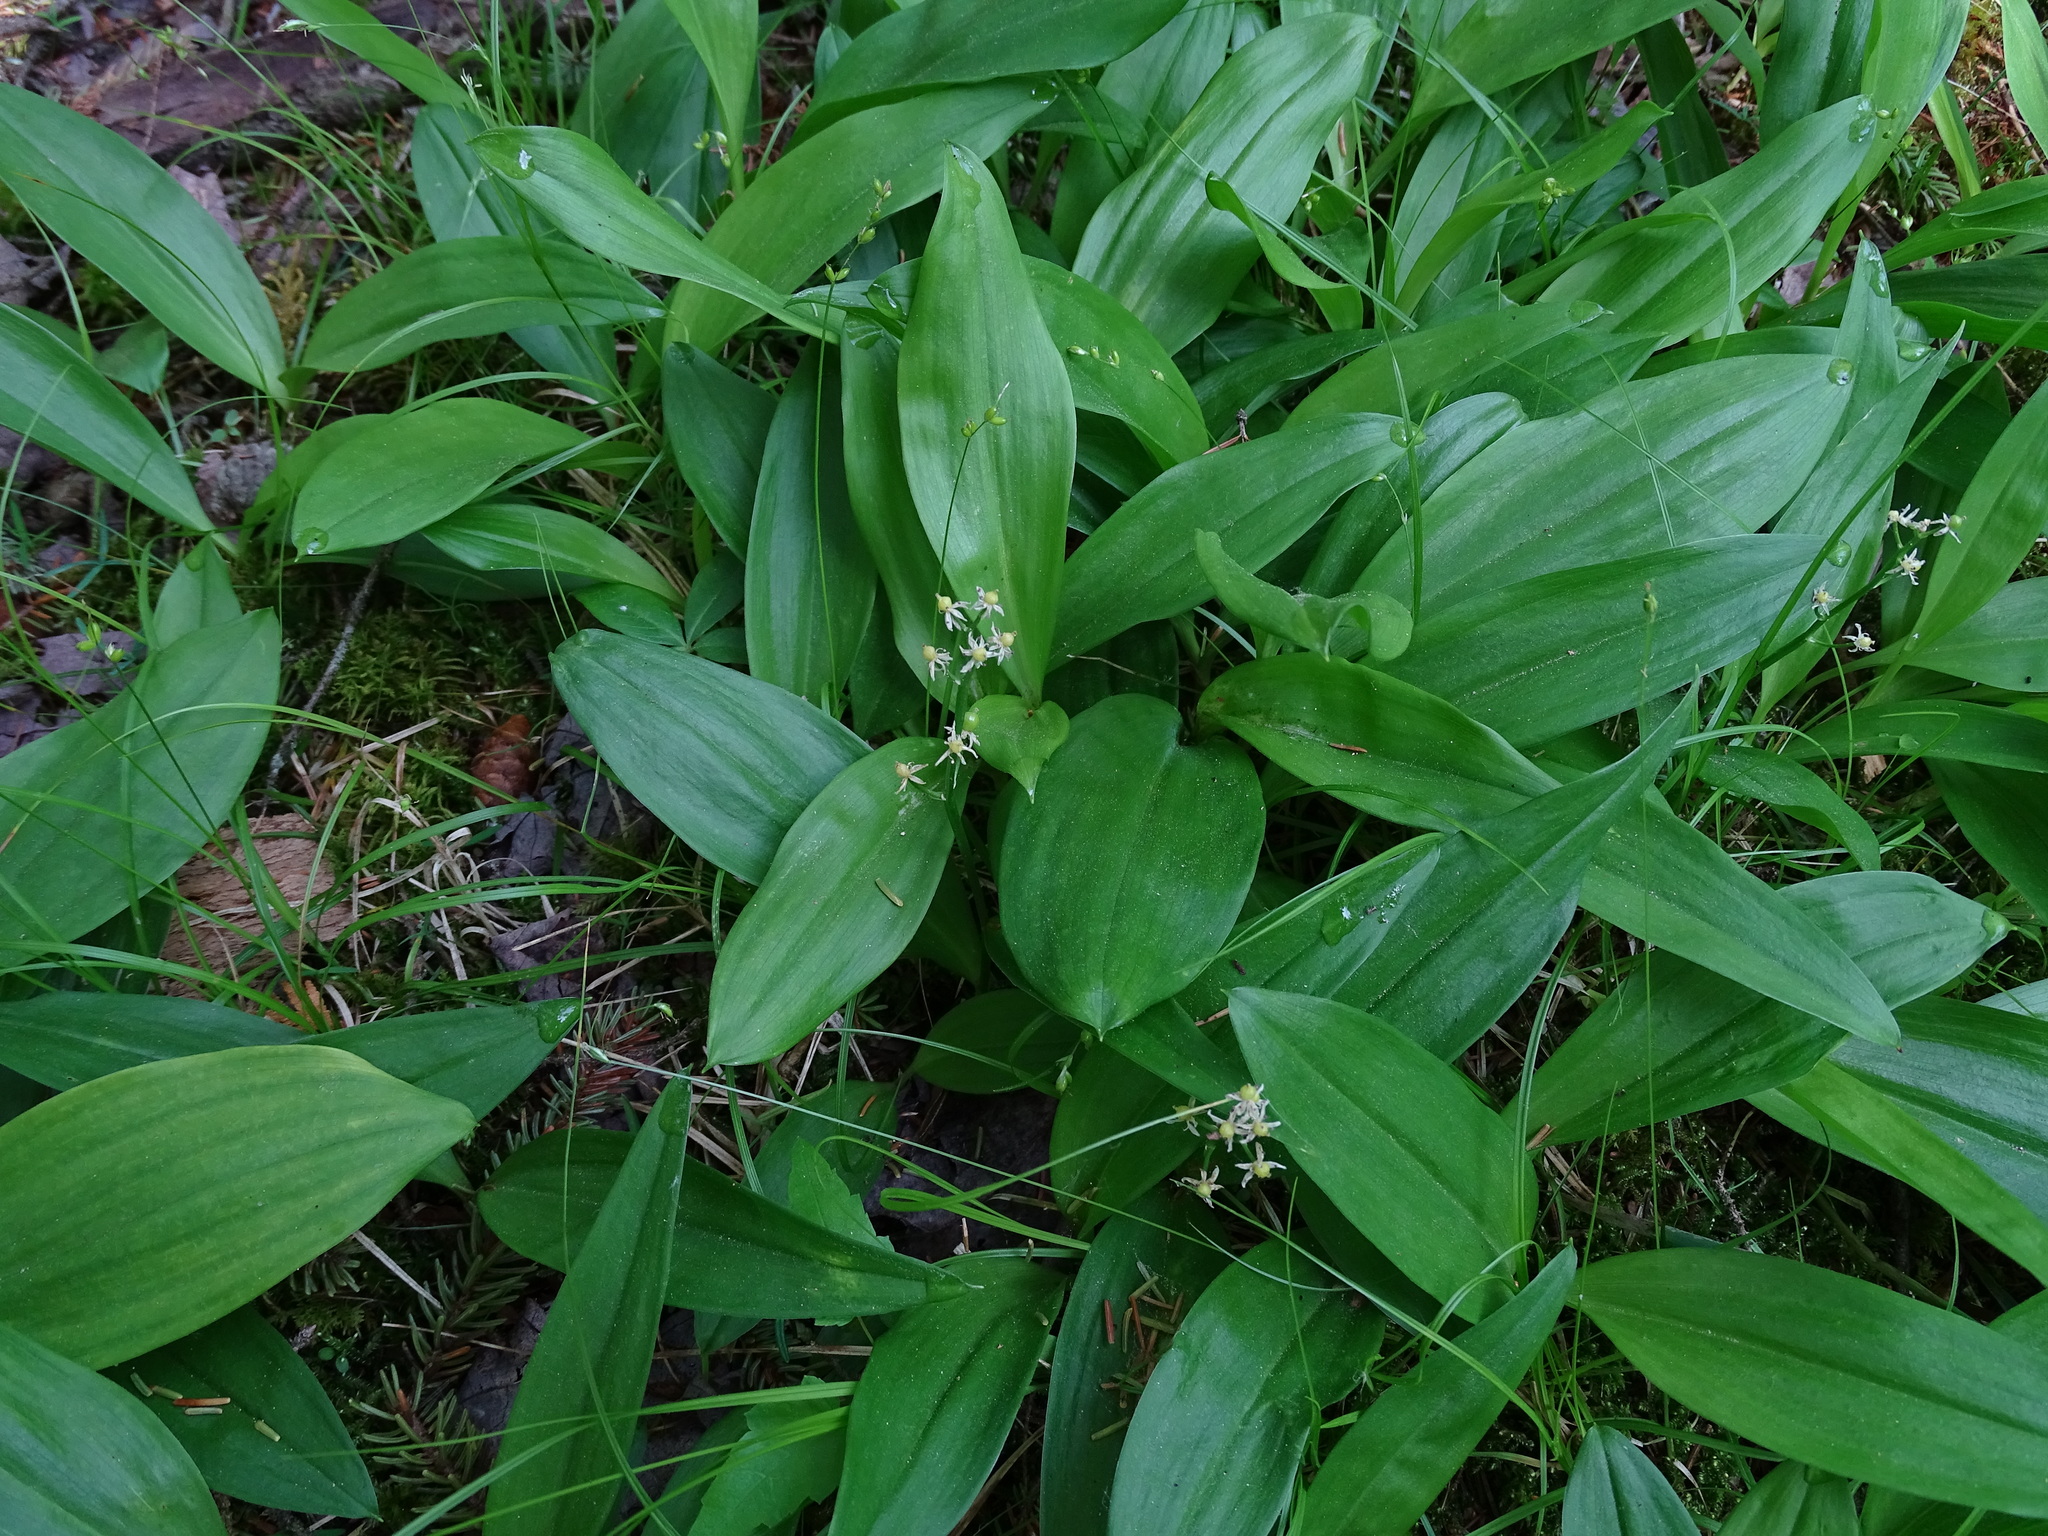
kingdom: Plantae
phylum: Tracheophyta
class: Liliopsida
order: Asparagales
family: Asparagaceae
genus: Maianthemum
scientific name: Maianthemum trifolium
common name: Swamp false solomon's seal
